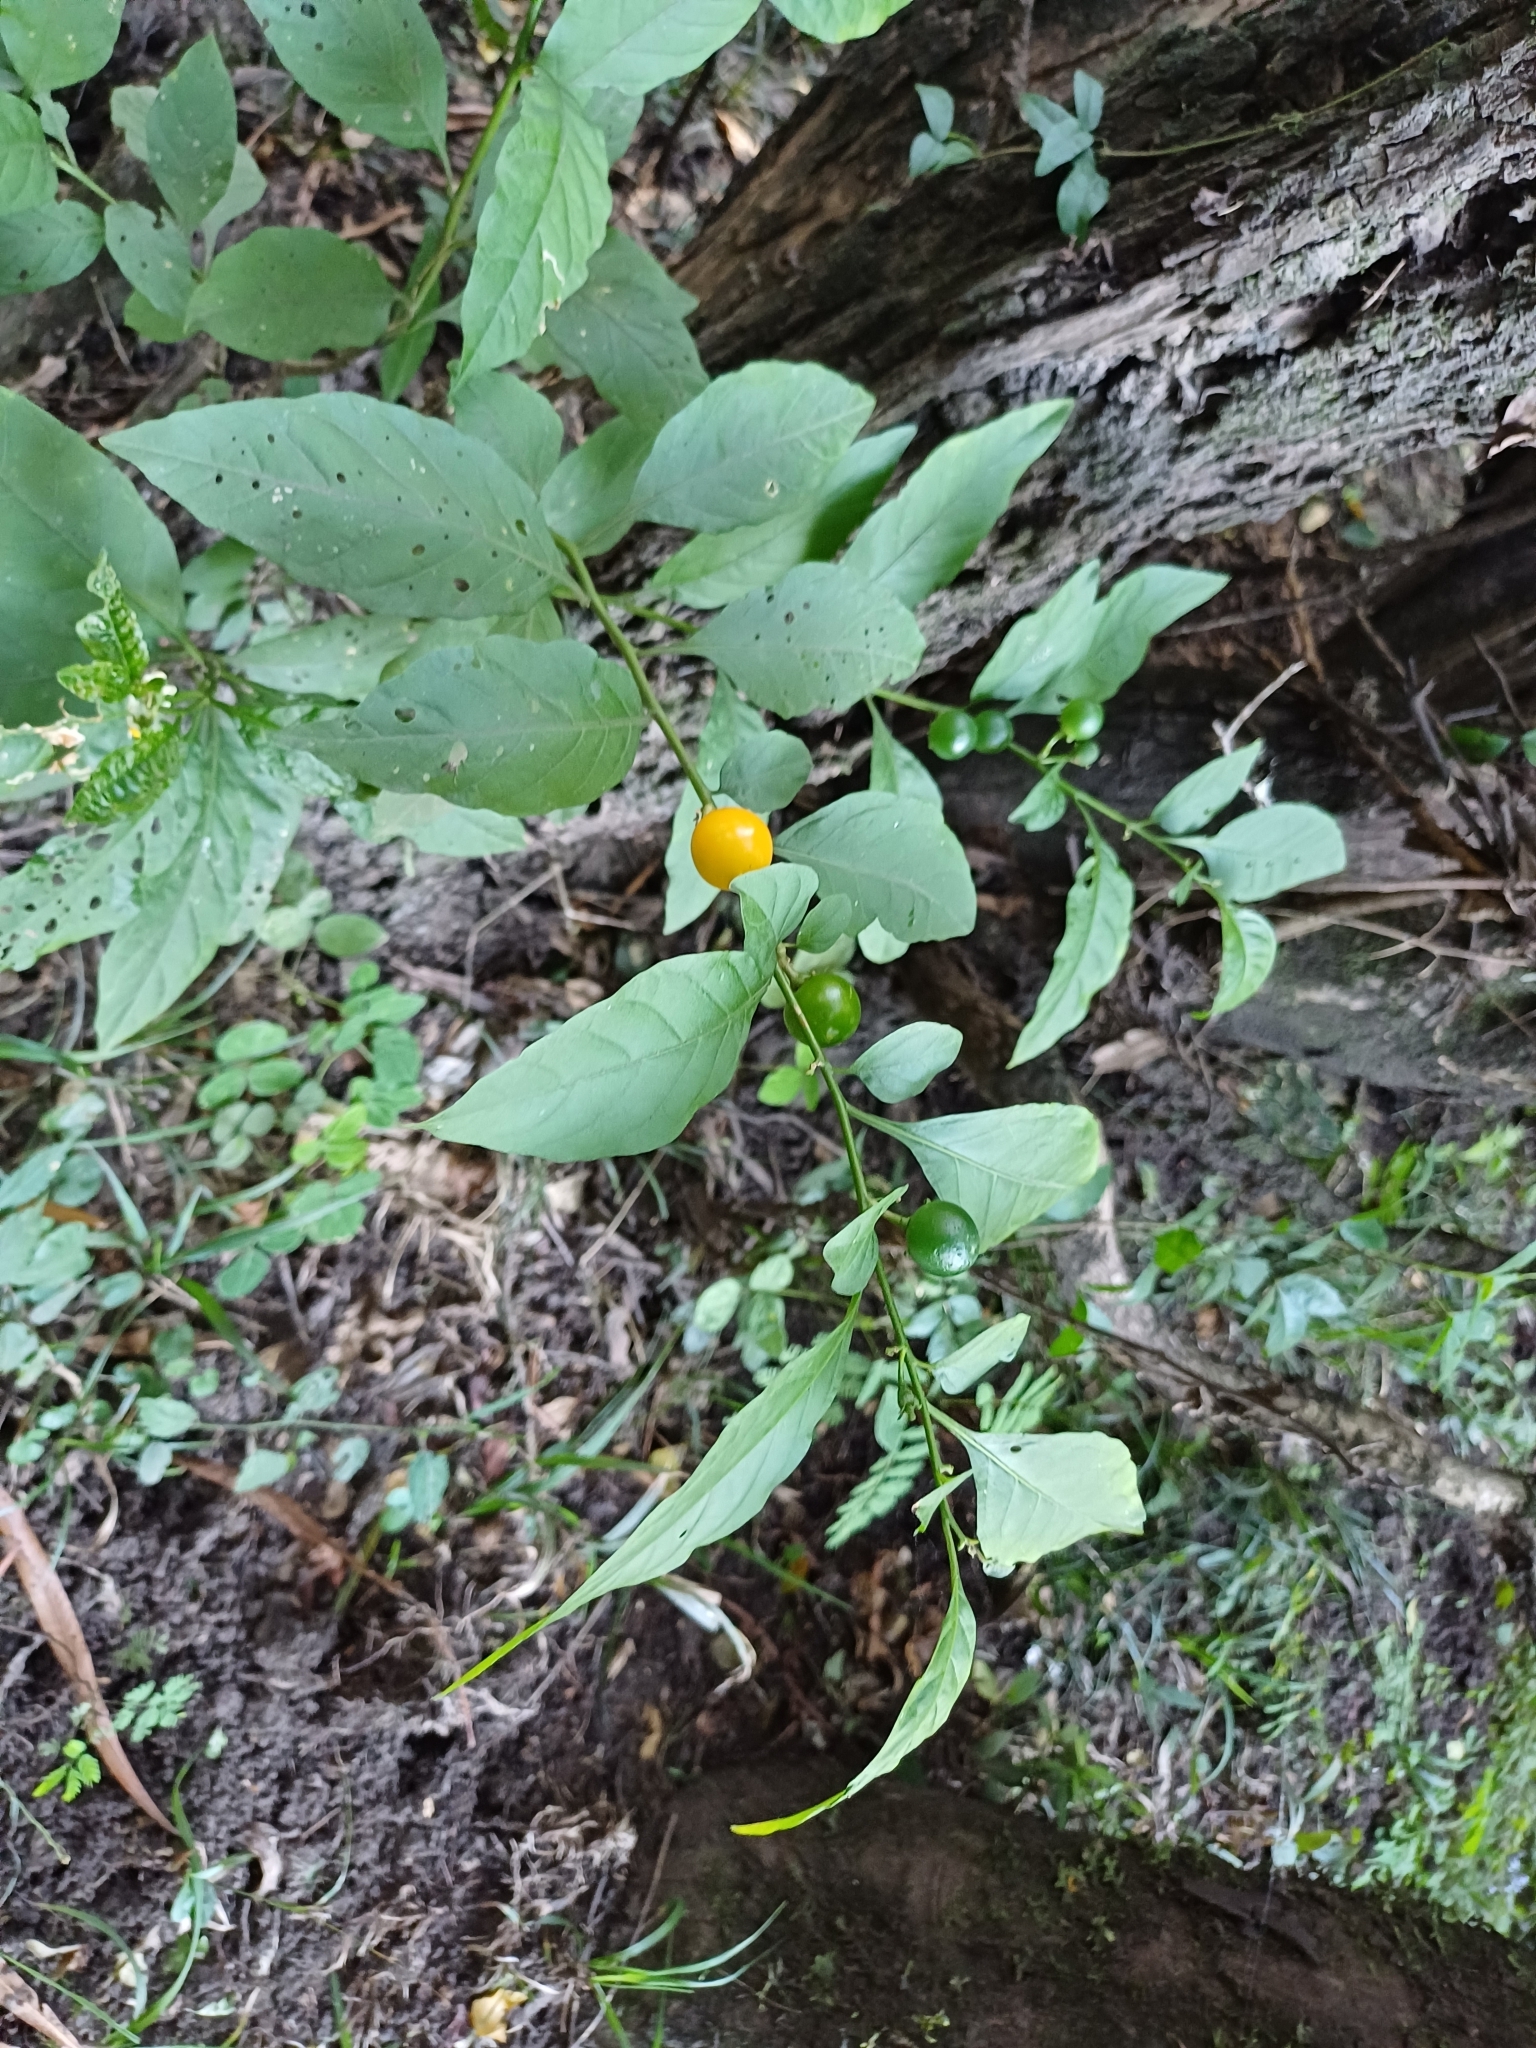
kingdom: Plantae
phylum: Tracheophyta
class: Magnoliopsida
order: Solanales
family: Solanaceae
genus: Solanum
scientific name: Solanum pseudocapsicum
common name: Jerusalem cherry
